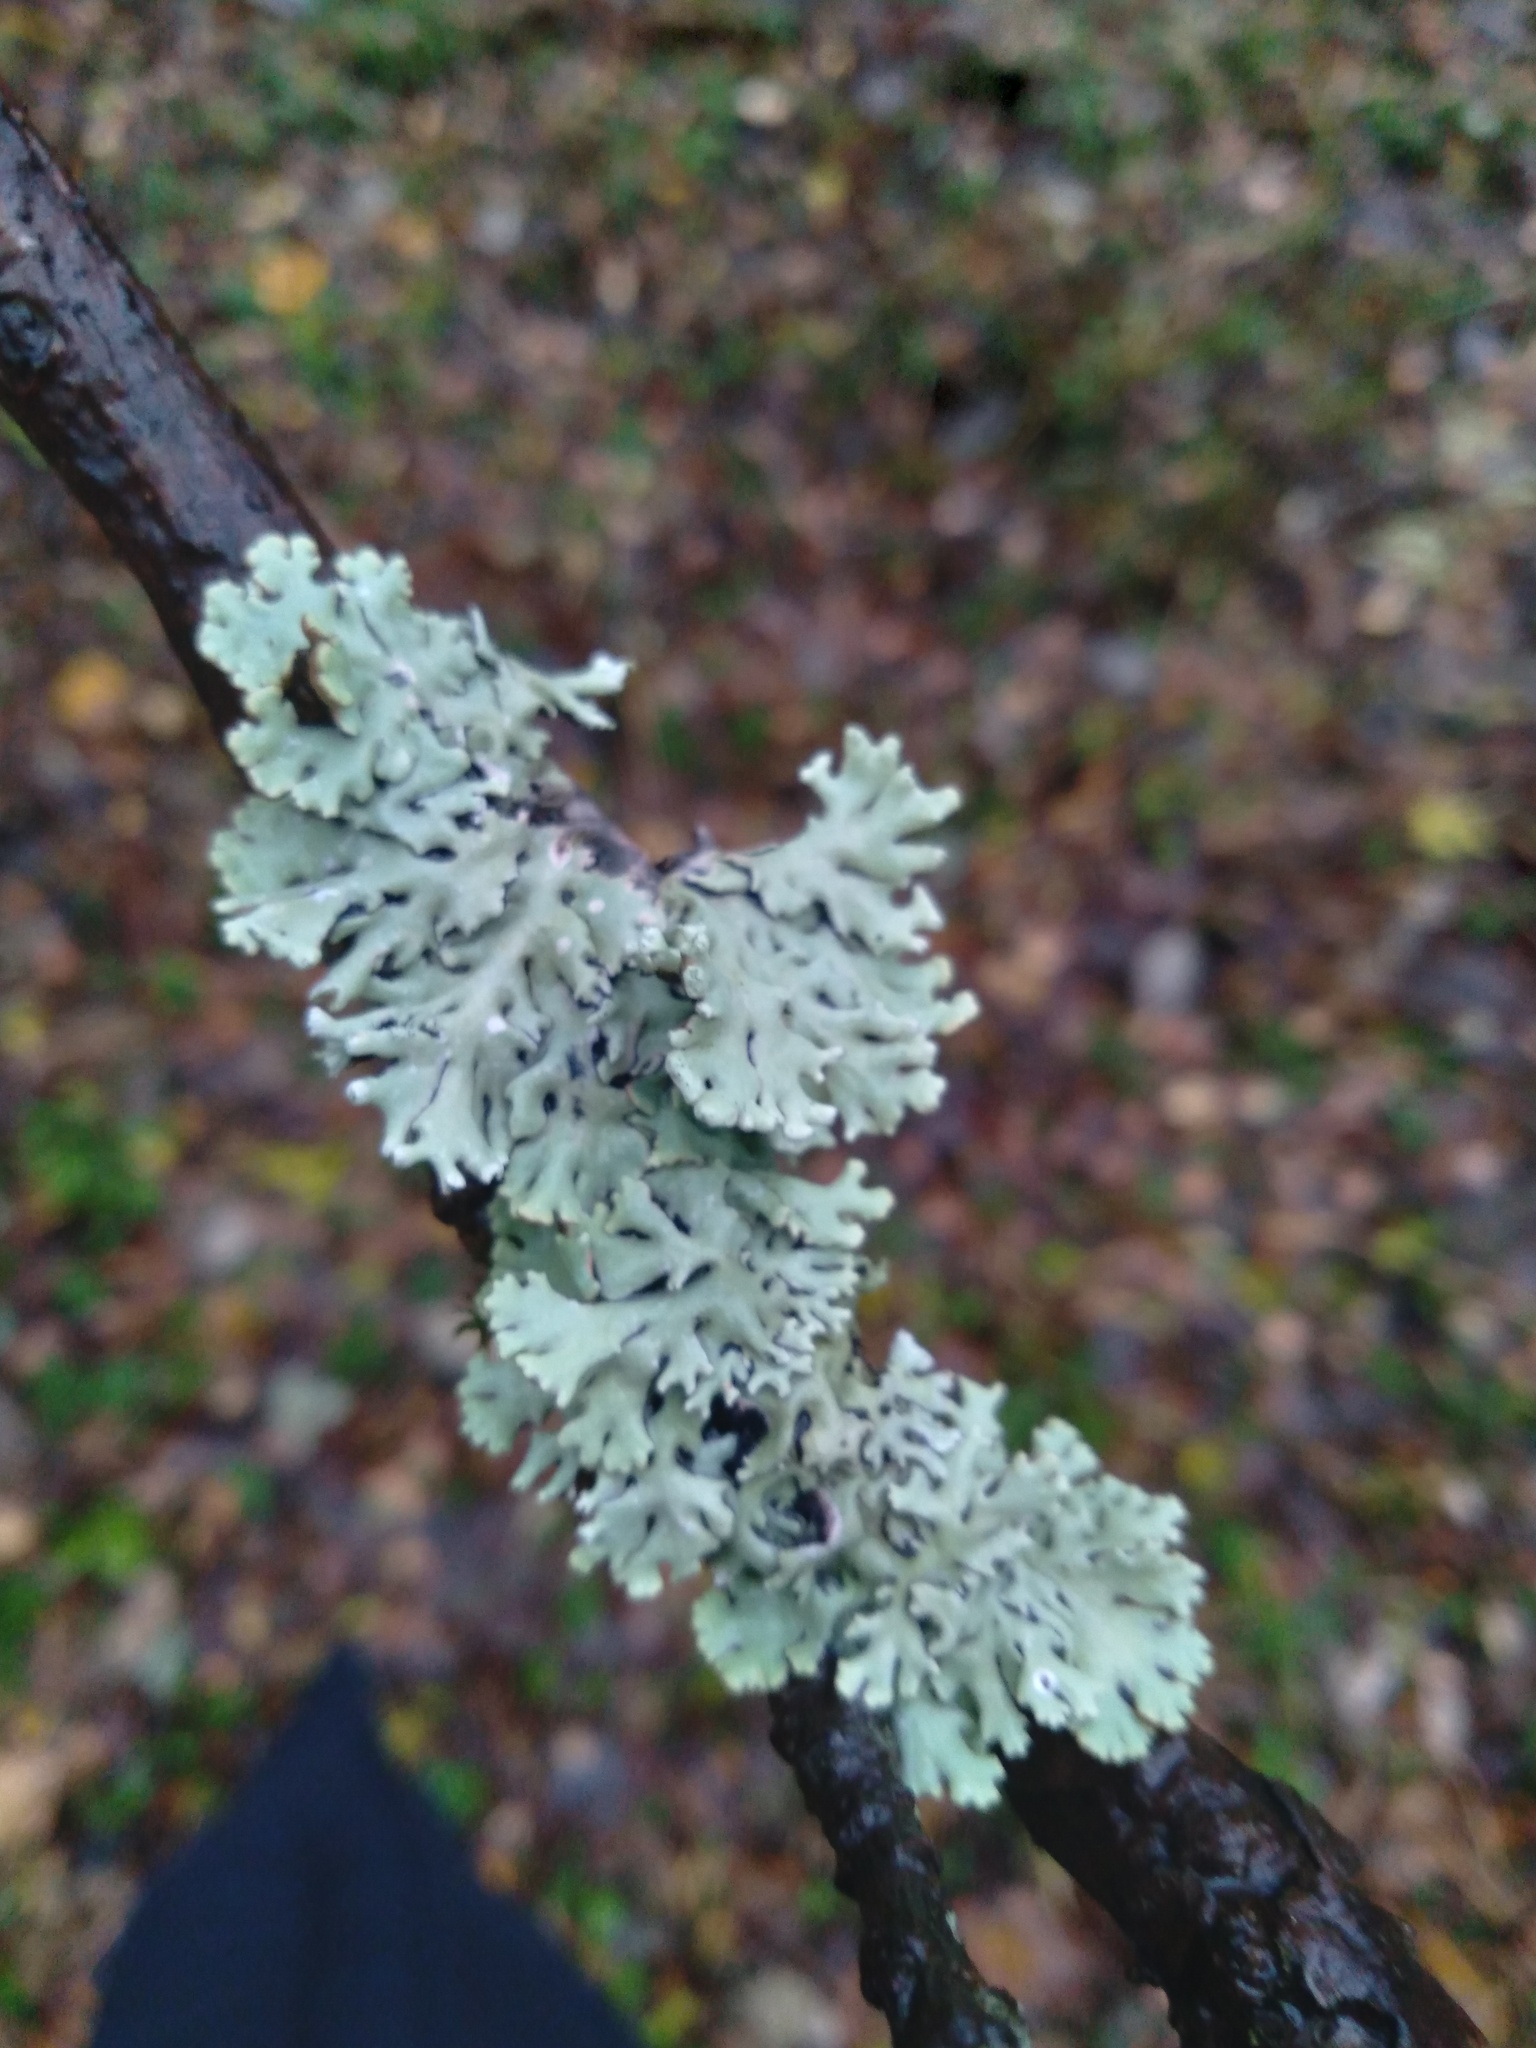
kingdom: Fungi
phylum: Ascomycota
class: Lecanoromycetes
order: Lecanorales
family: Parmeliaceae
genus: Hypogymnia
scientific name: Hypogymnia physodes
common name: Dark crottle
